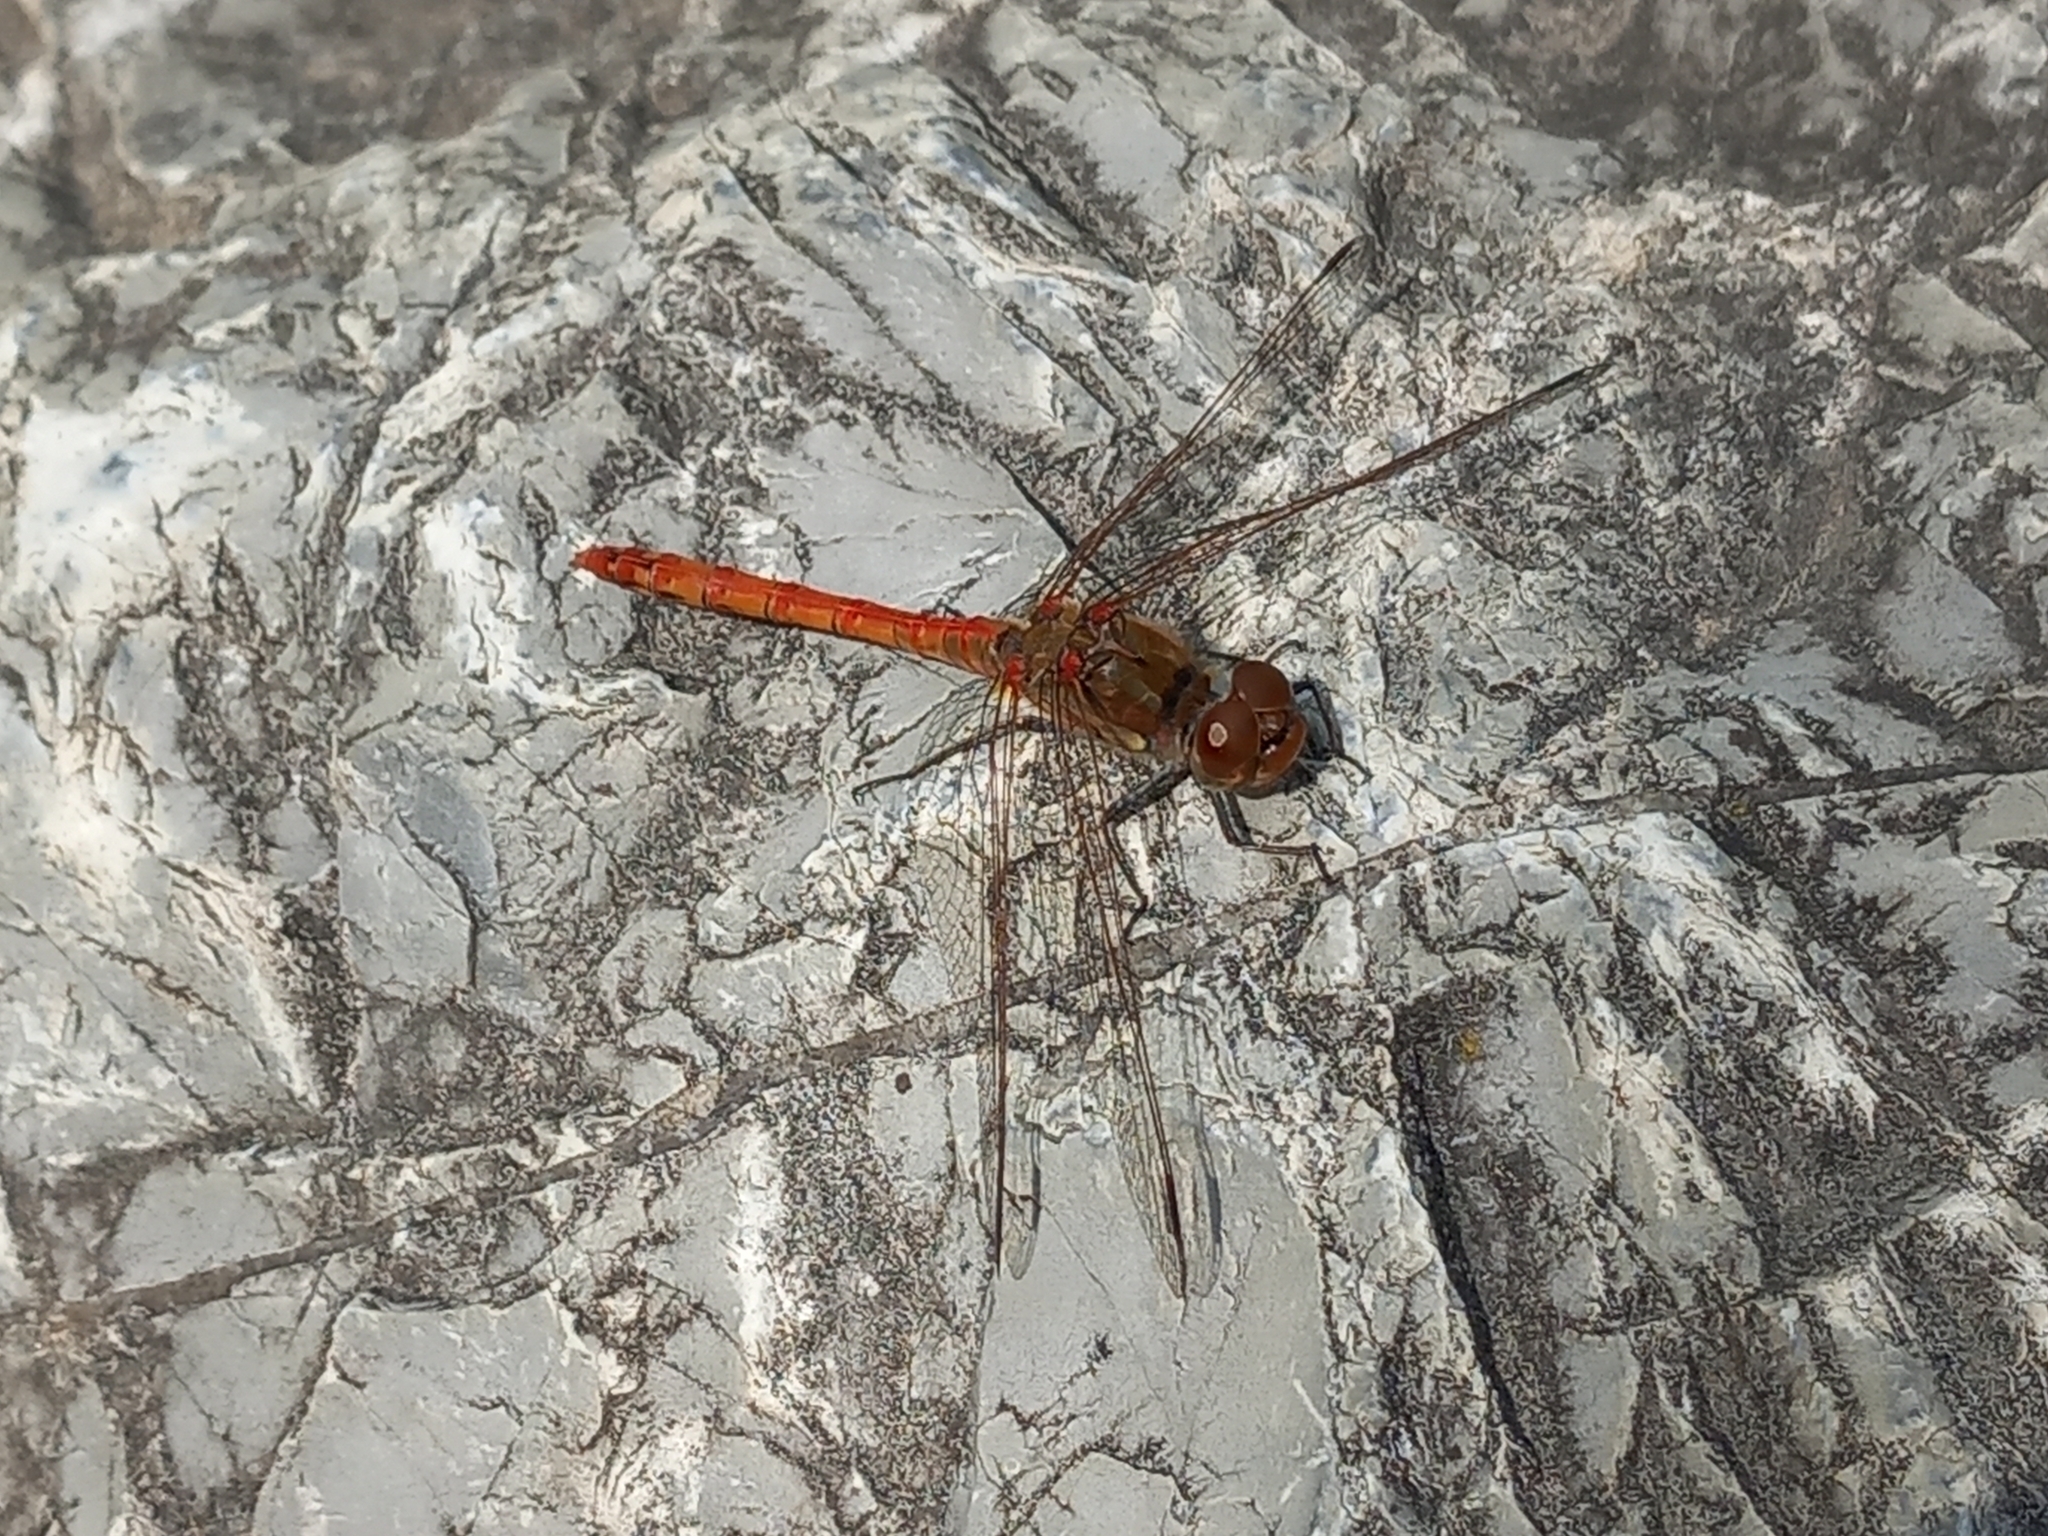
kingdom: Animalia
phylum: Arthropoda
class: Insecta
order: Odonata
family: Libellulidae
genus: Sympetrum
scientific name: Sympetrum striolatum
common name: Common darter
